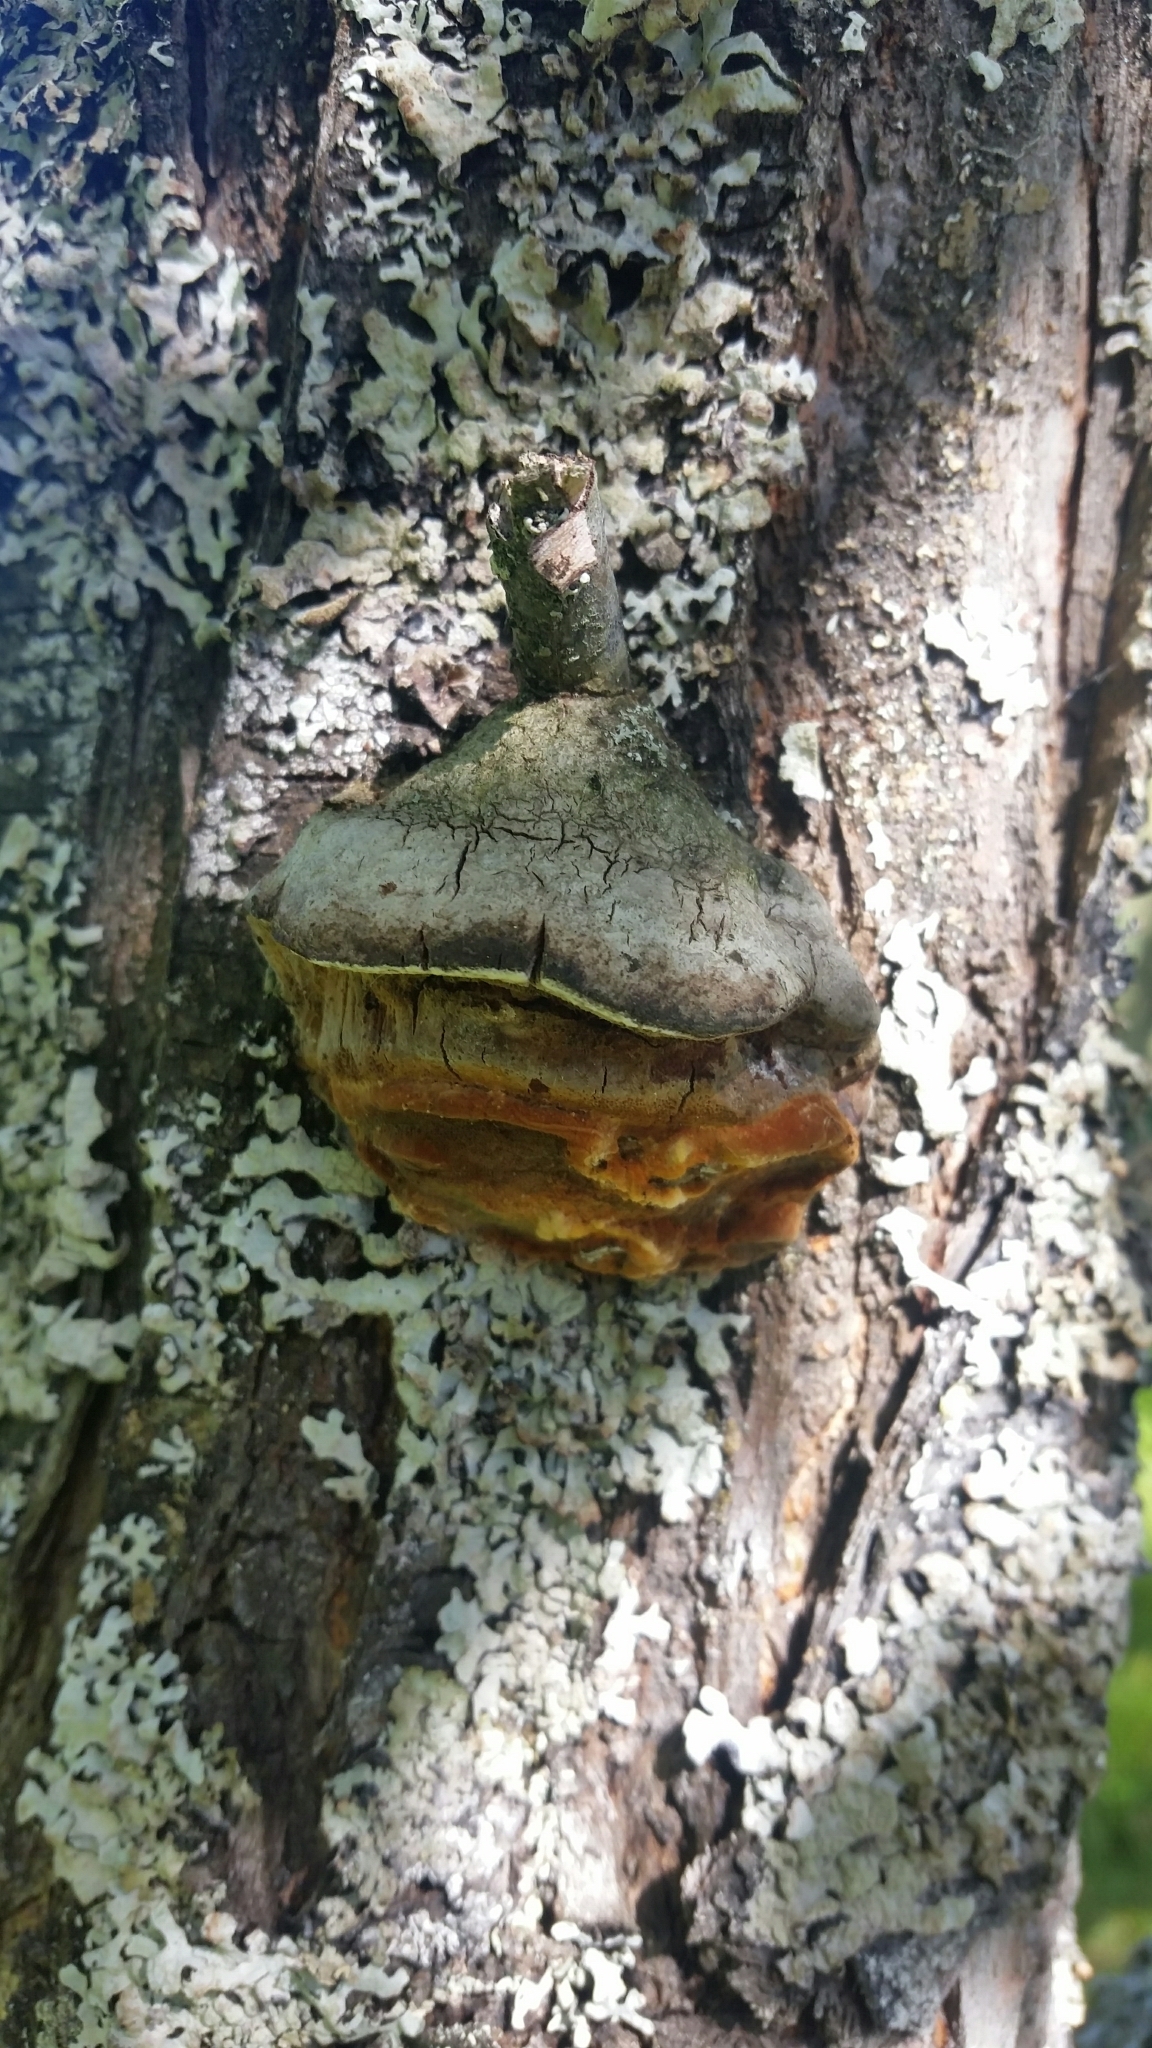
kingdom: Fungi
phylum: Basidiomycota
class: Agaricomycetes
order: Hymenochaetales
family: Hymenochaetaceae
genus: Phellinus
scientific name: Phellinus pomaceus
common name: Cushion bracket
